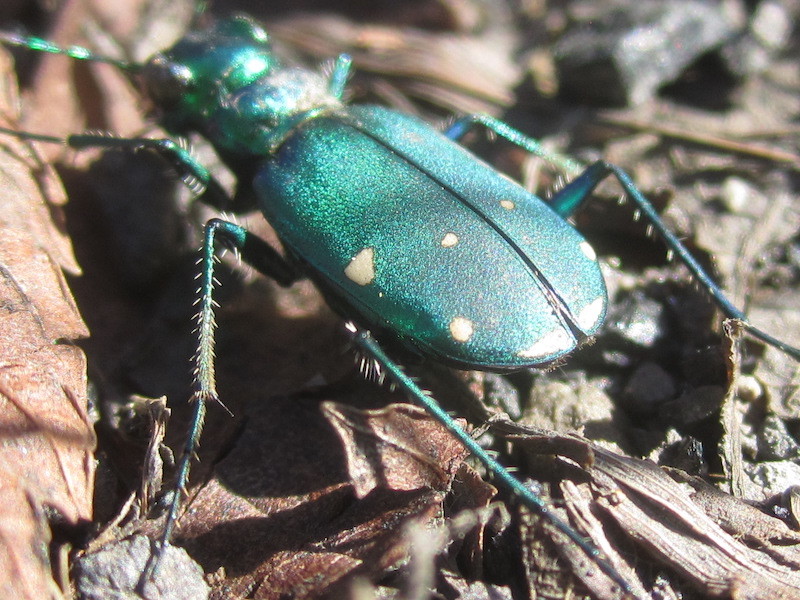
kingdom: Animalia
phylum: Arthropoda
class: Insecta
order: Coleoptera
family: Carabidae
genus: Cicindela
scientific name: Cicindela sexguttata
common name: Six-spotted tiger beetle
